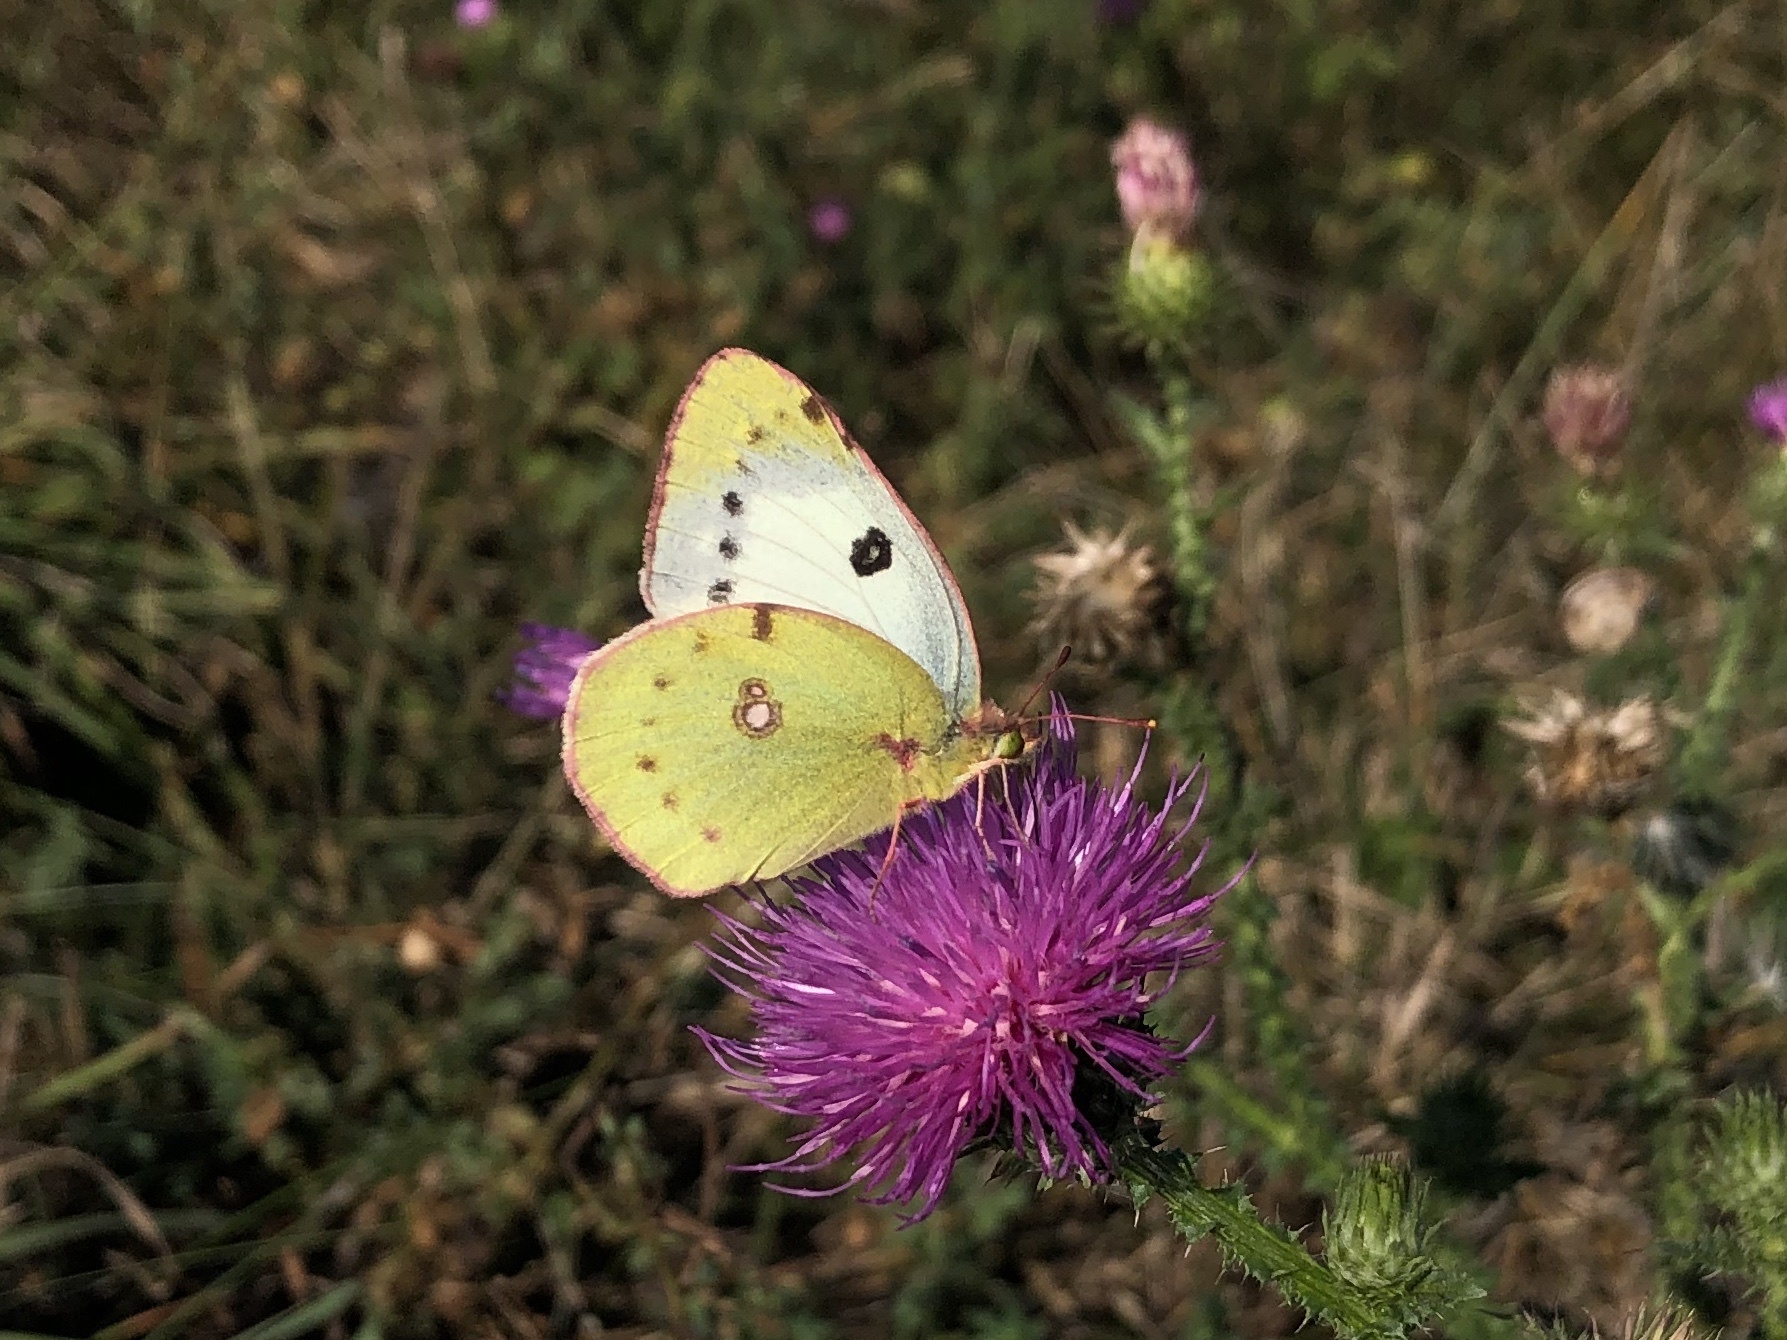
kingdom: Animalia
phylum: Arthropoda
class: Insecta
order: Lepidoptera
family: Pieridae
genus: Colias
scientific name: Colias croceus
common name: Clouded yellow
